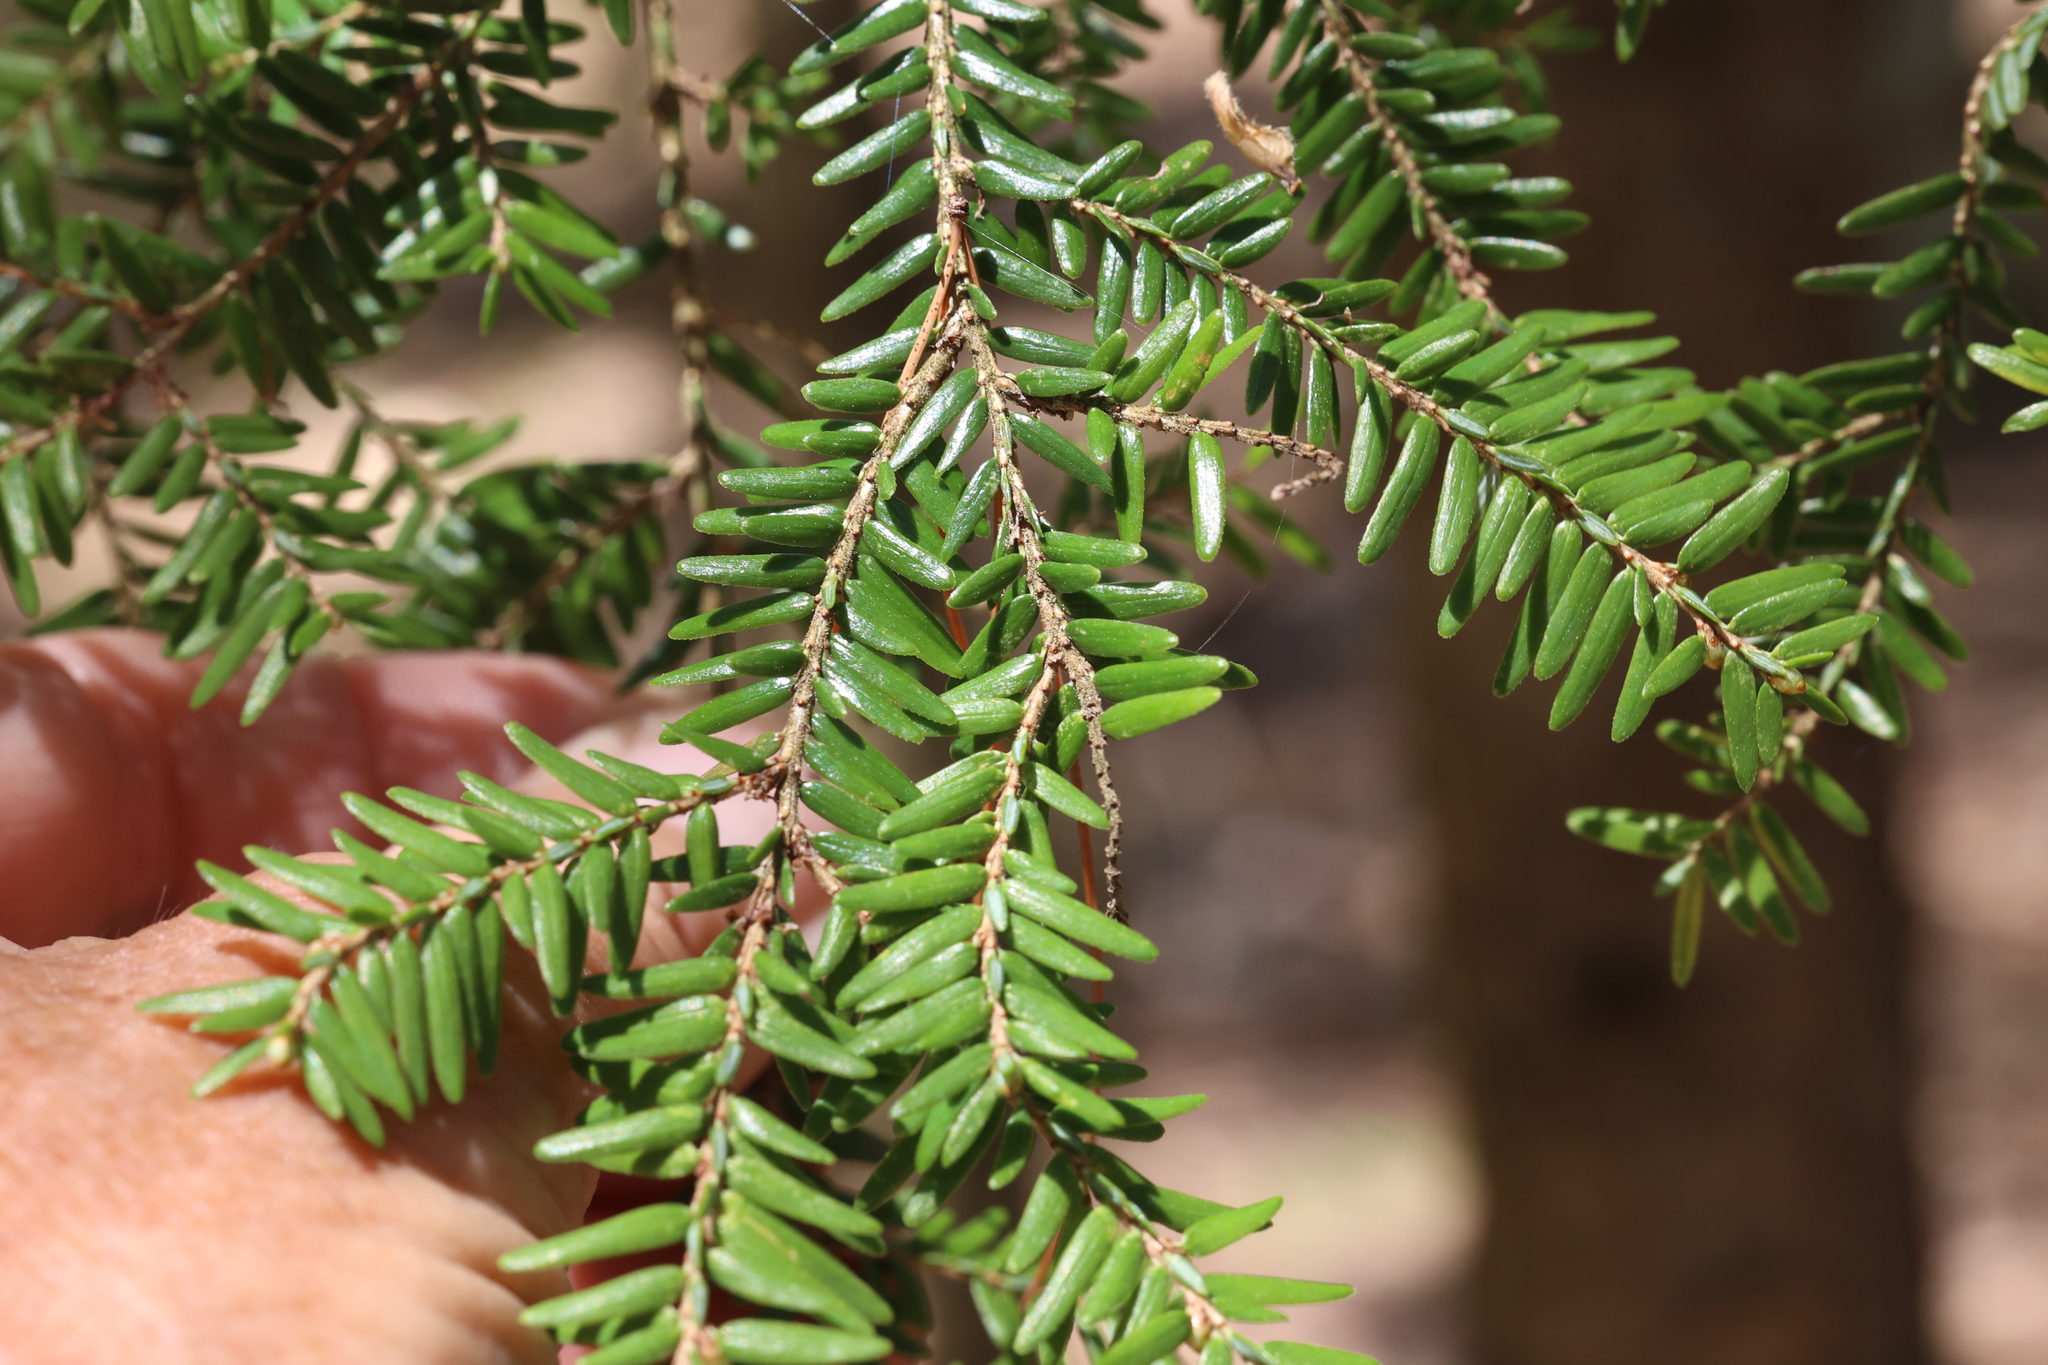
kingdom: Plantae
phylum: Tracheophyta
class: Pinopsida
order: Pinales
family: Pinaceae
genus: Tsuga
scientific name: Tsuga canadensis
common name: Eastern hemlock
